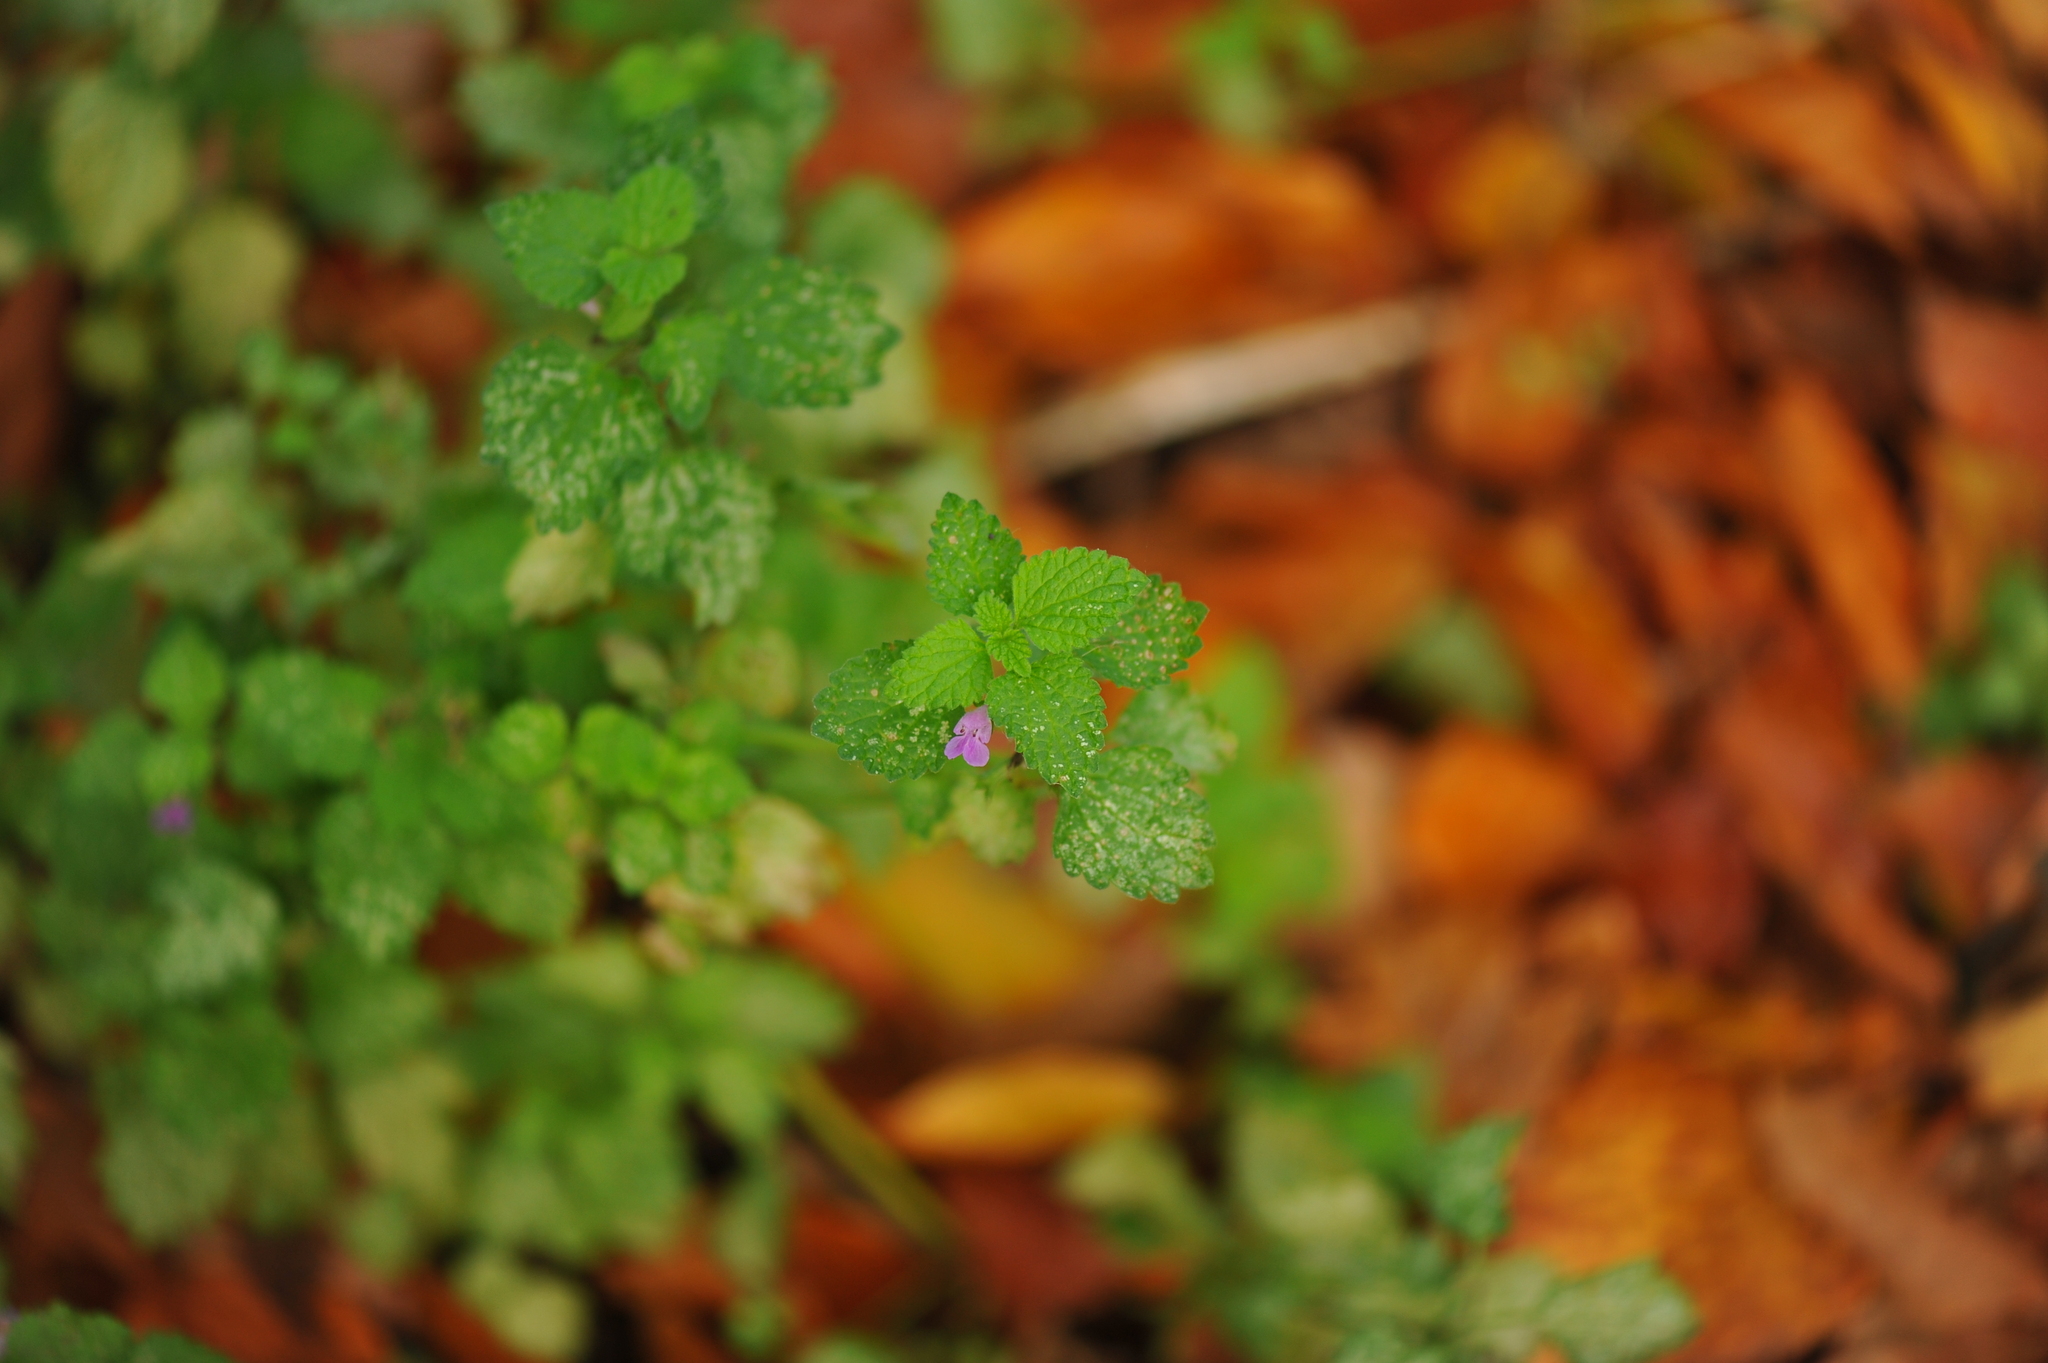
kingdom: Plantae
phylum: Tracheophyta
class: Magnoliopsida
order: Lamiales
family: Lamiaceae
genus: Ballota
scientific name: Ballota nigra
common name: Black horehound
